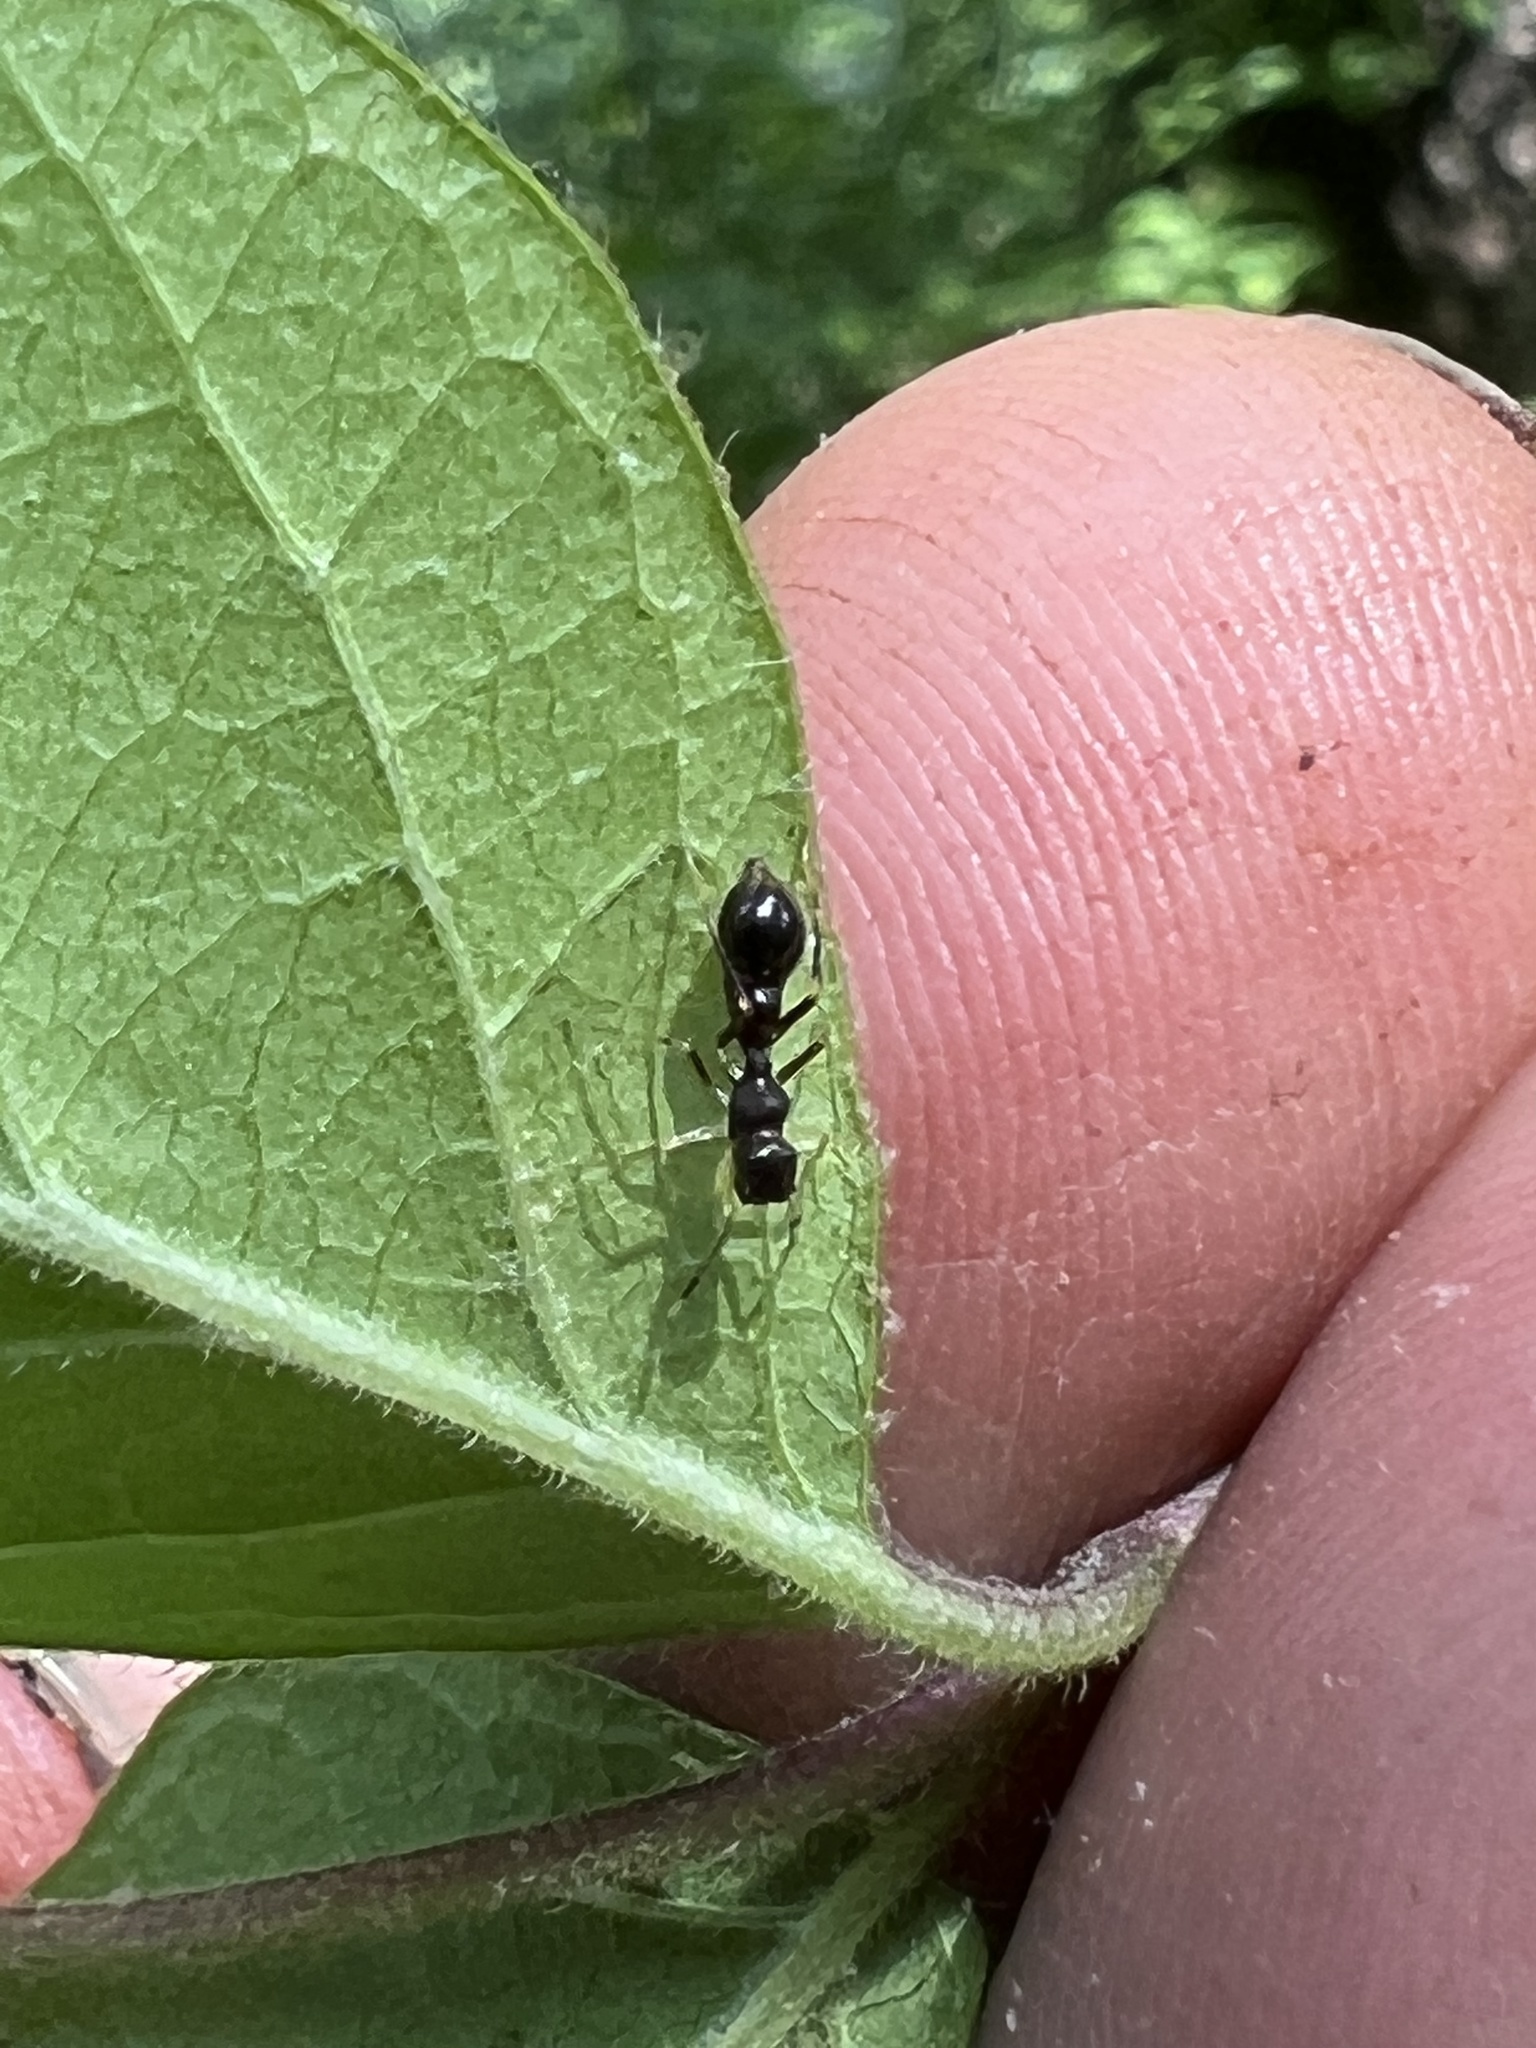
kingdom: Animalia
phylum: Arthropoda
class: Arachnida
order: Araneae
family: Salticidae
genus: Synemosyna
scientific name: Synemosyna formica
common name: Slender ant-mimic jumping spider
